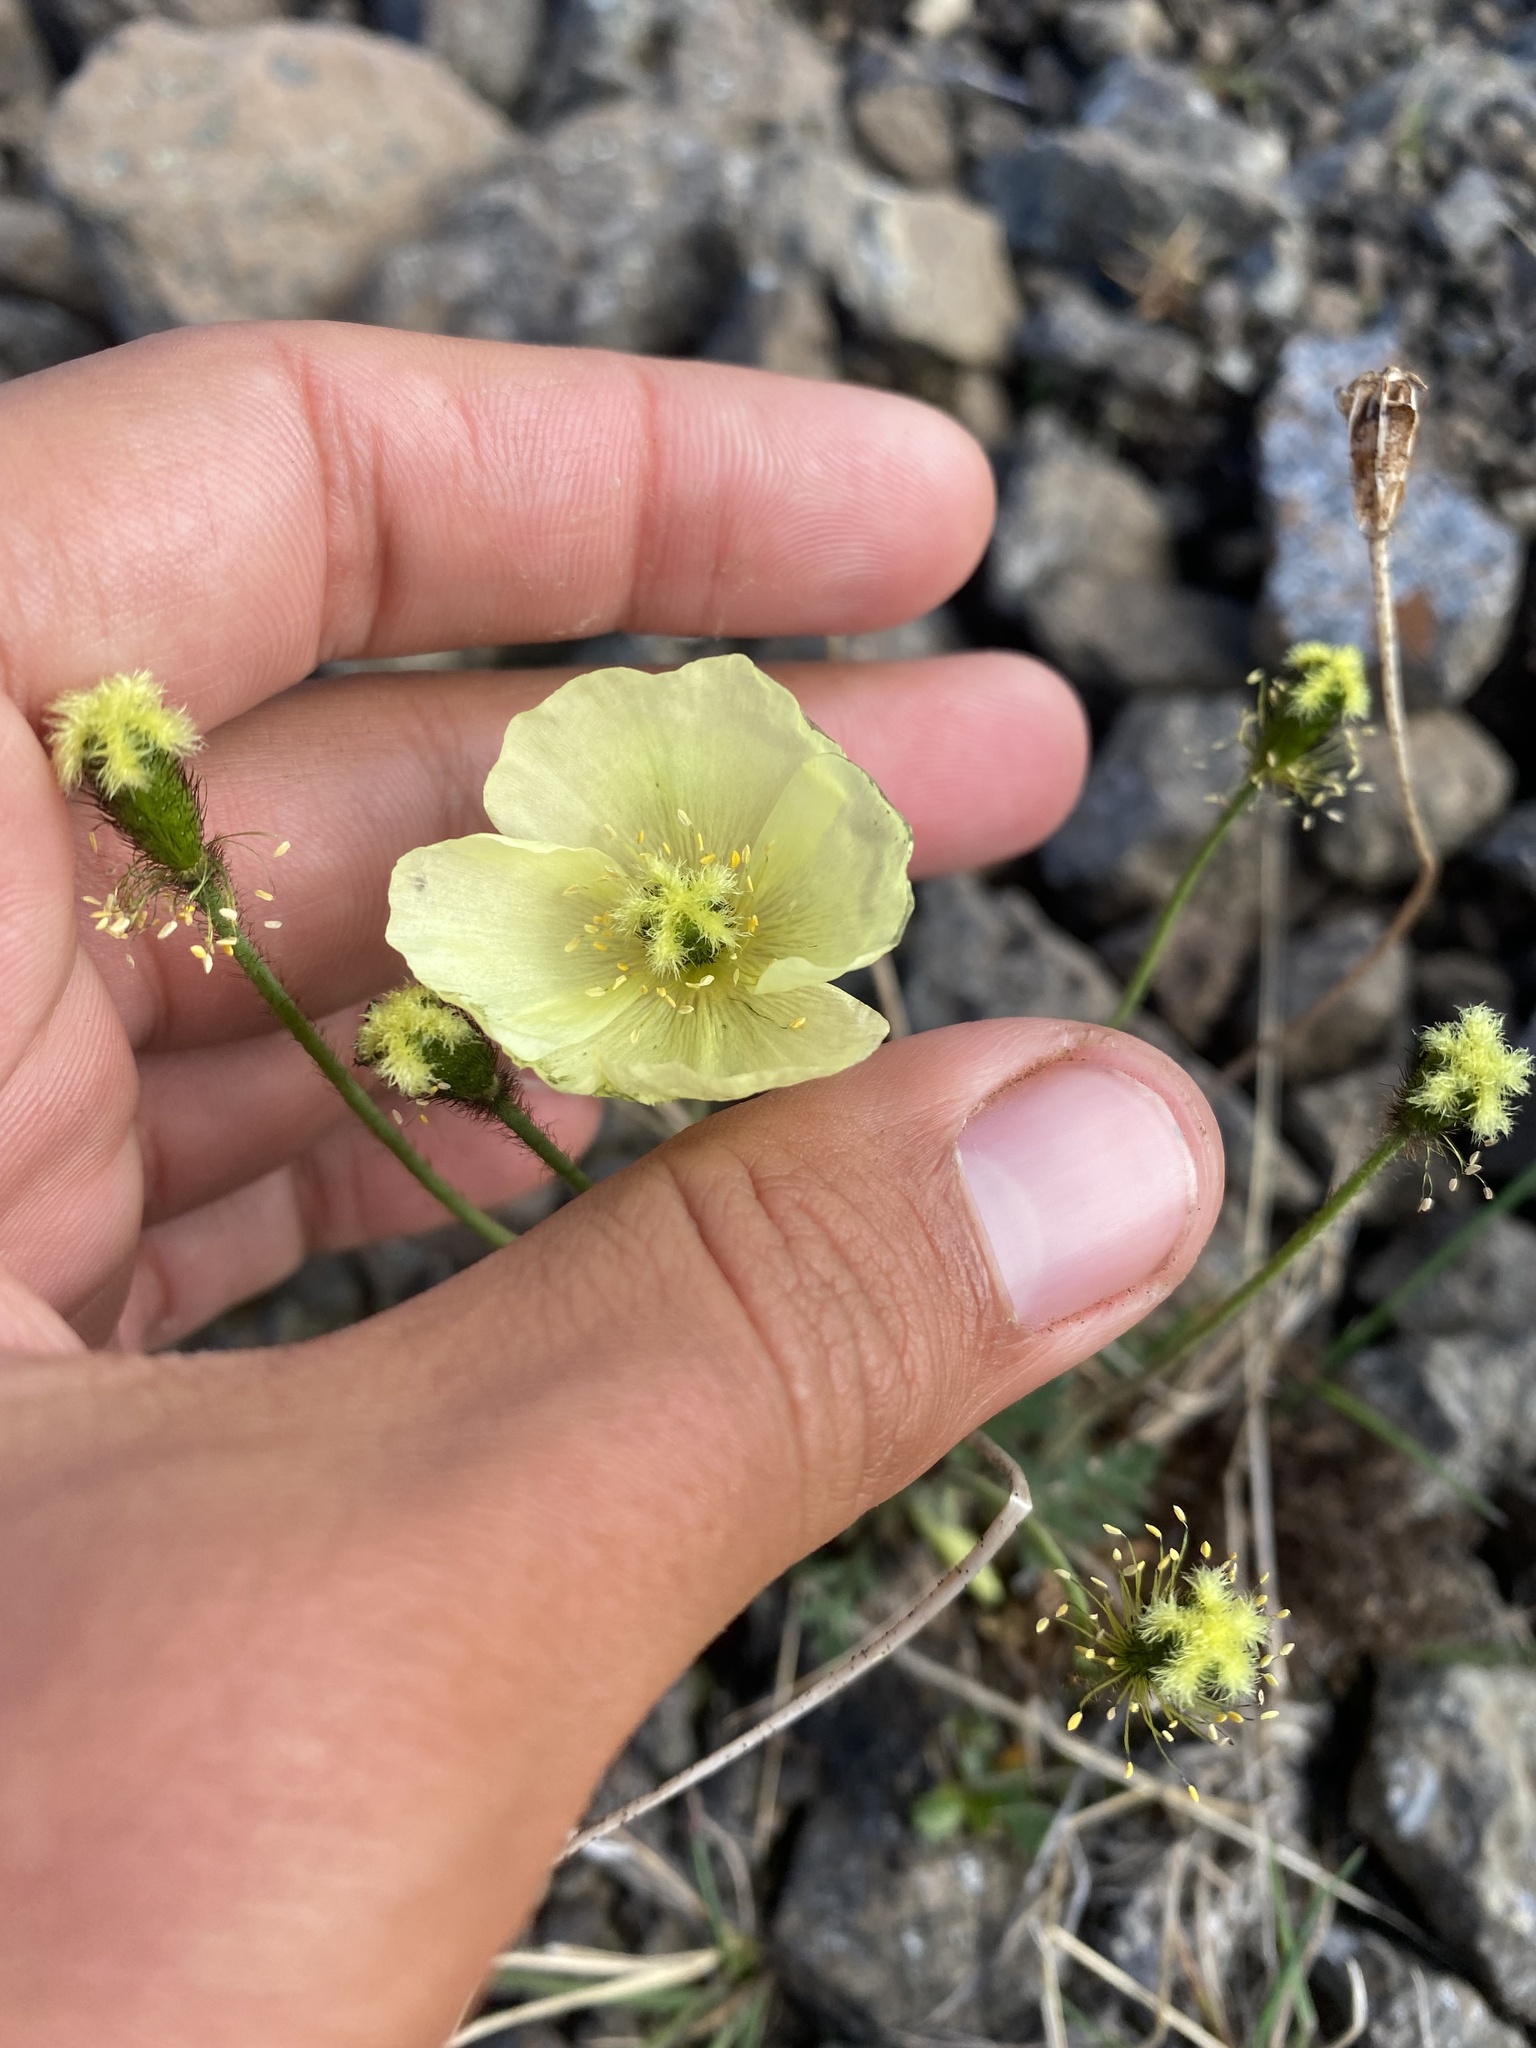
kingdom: Plantae
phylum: Tracheophyta
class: Magnoliopsida
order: Ranunculales
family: Papaveraceae
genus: Papaver
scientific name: Papaver angustifolium
